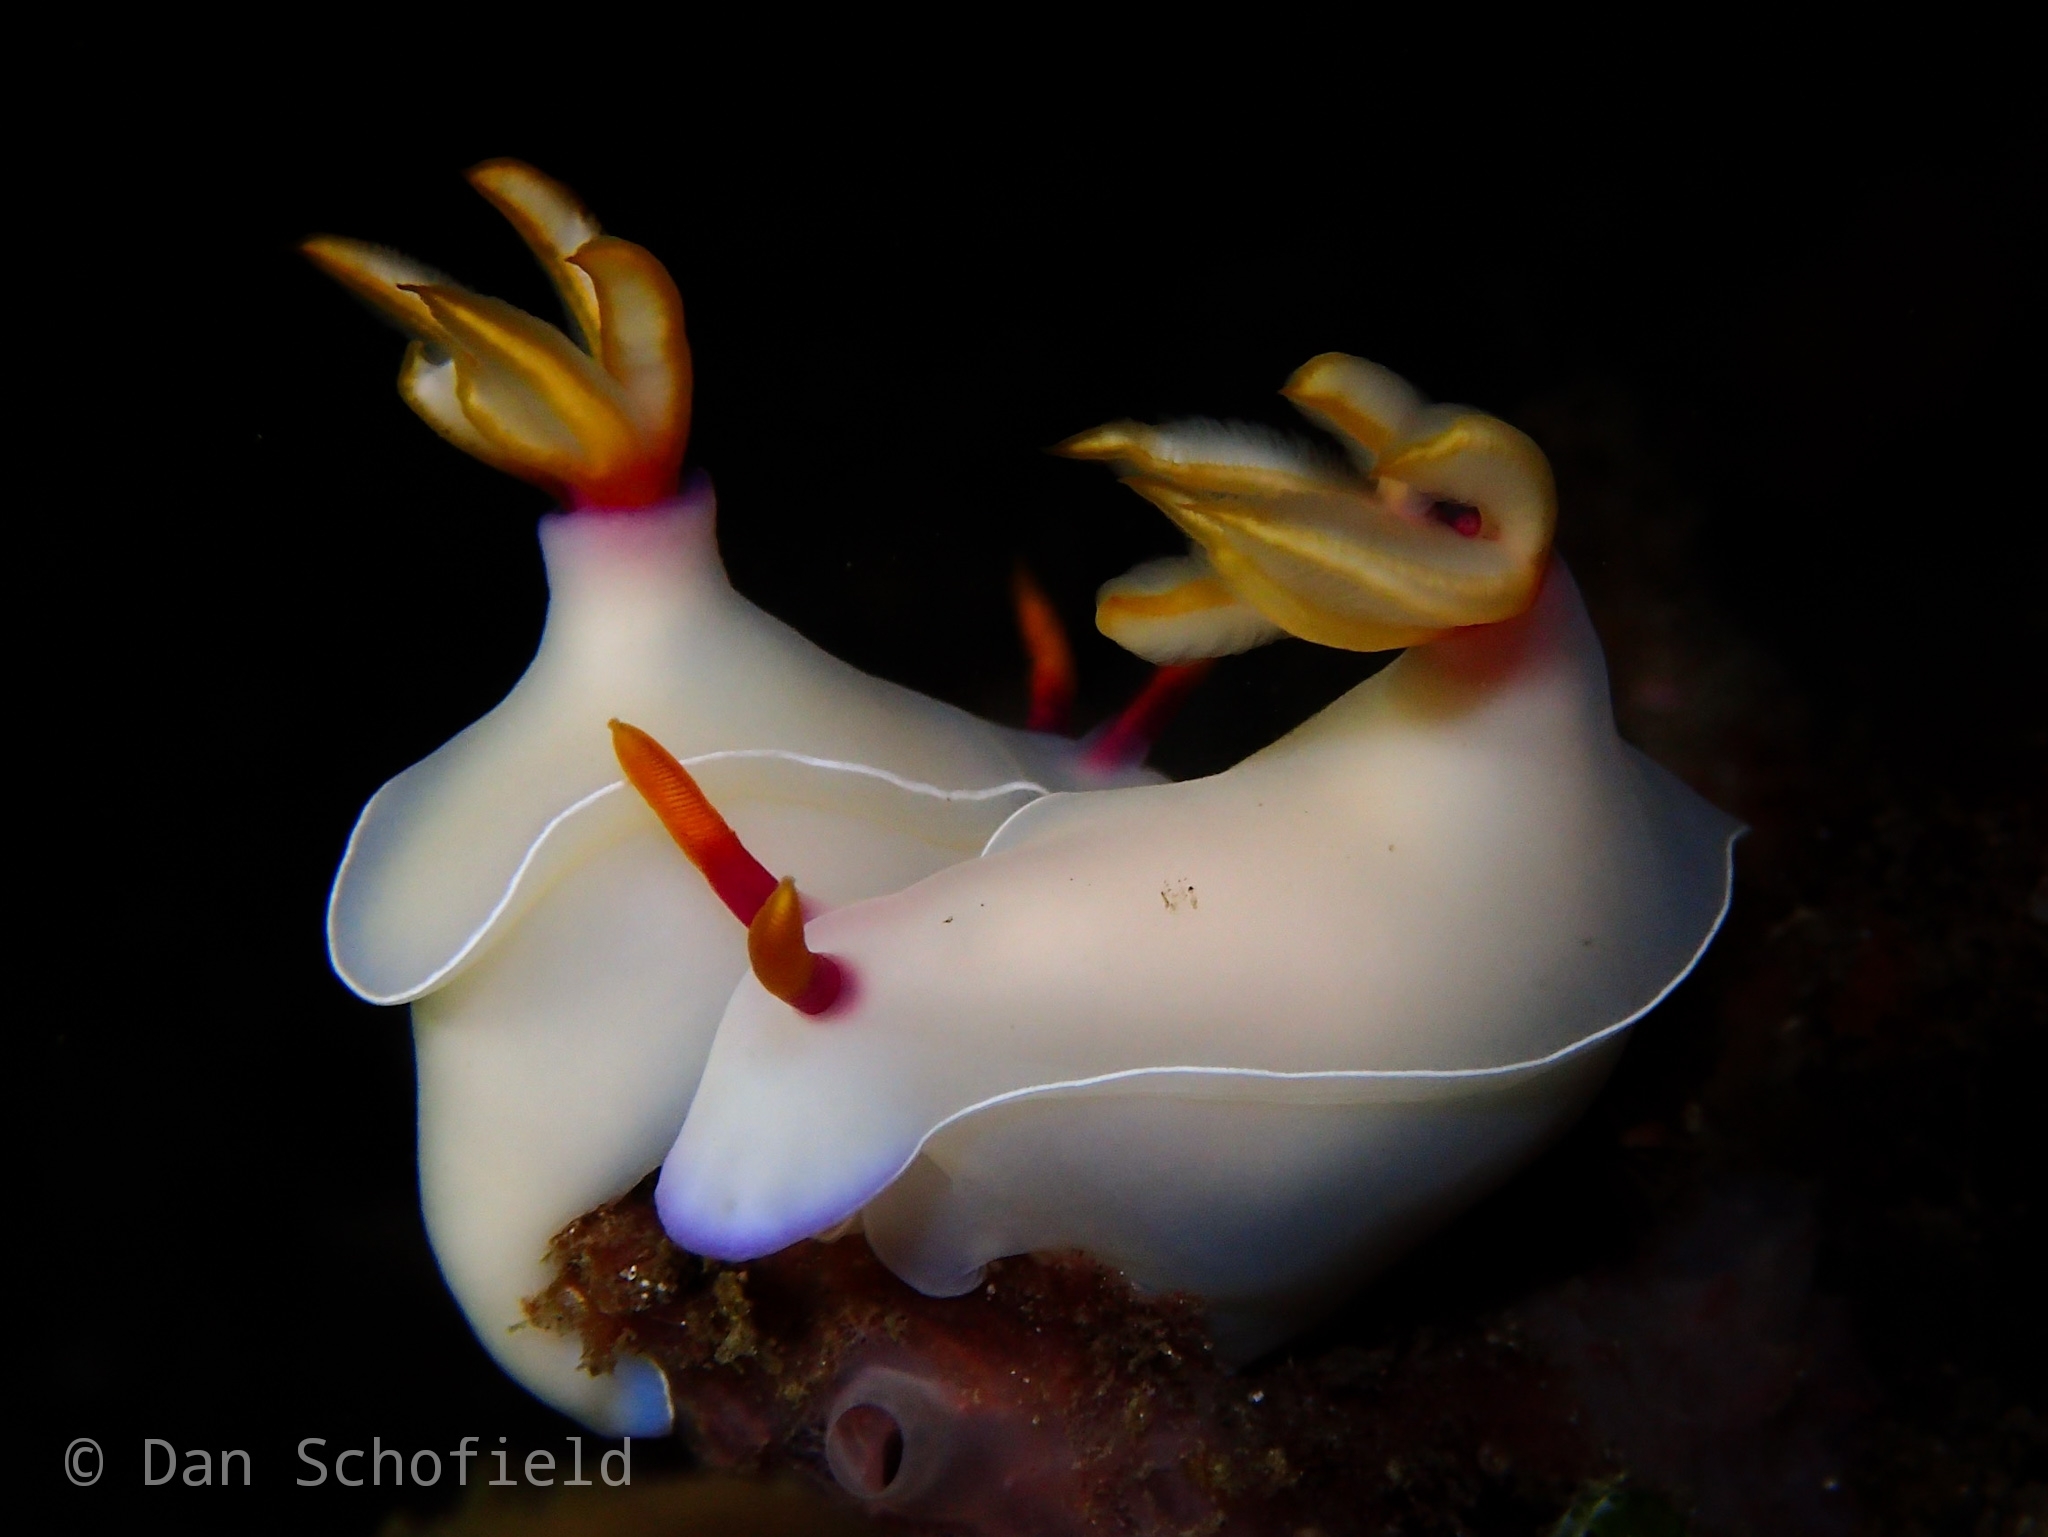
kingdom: Animalia
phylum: Mollusca
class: Gastropoda
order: Nudibranchia
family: Chromodorididae
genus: Hypselodoris
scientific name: Hypselodoris bullockii
